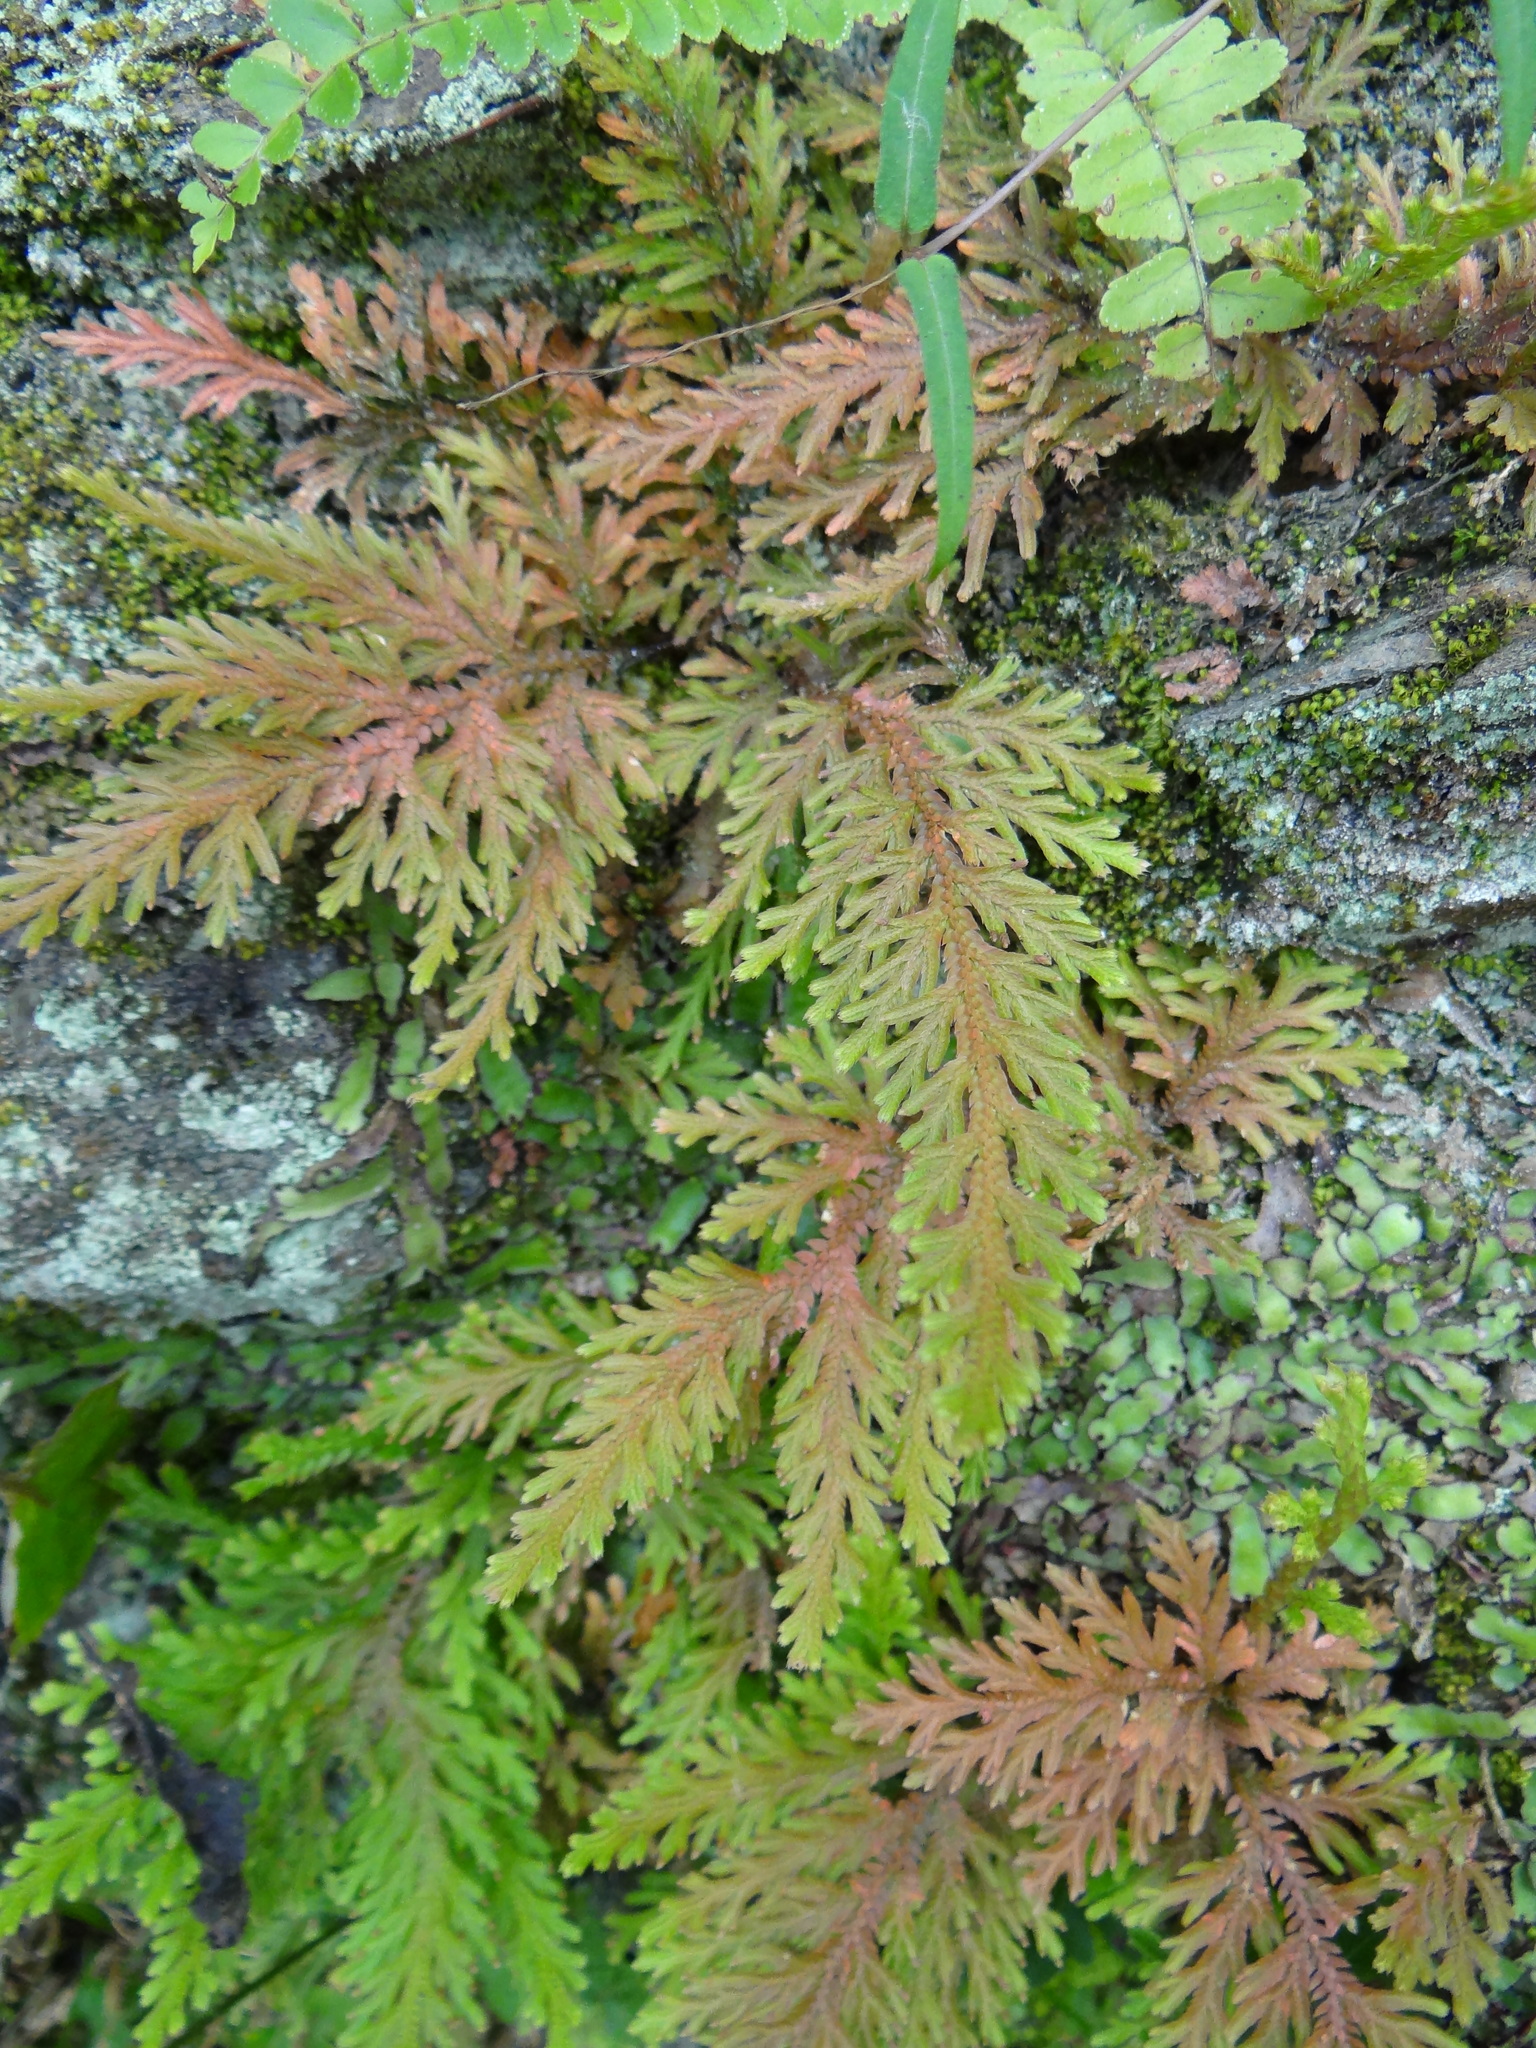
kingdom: Plantae
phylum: Tracheophyta
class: Lycopodiopsida
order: Selaginellales
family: Selaginellaceae
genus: Selaginella
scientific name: Selaginella moellendorffii
